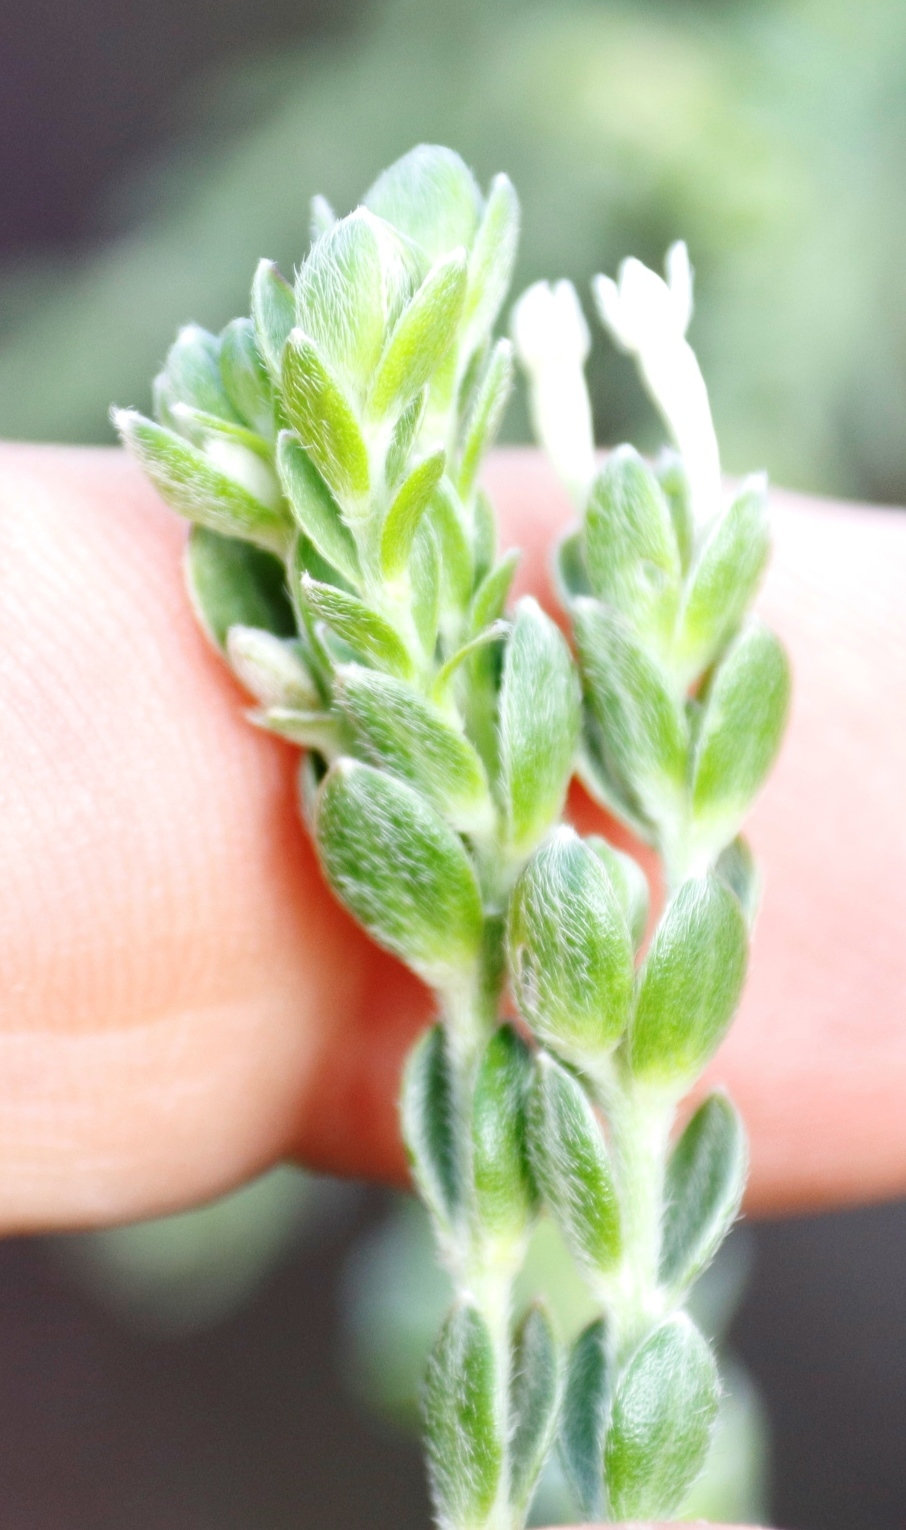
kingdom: Plantae
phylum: Tracheophyta
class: Magnoliopsida
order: Malvales
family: Thymelaeaceae
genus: Gnidia
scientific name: Gnidia sericea
